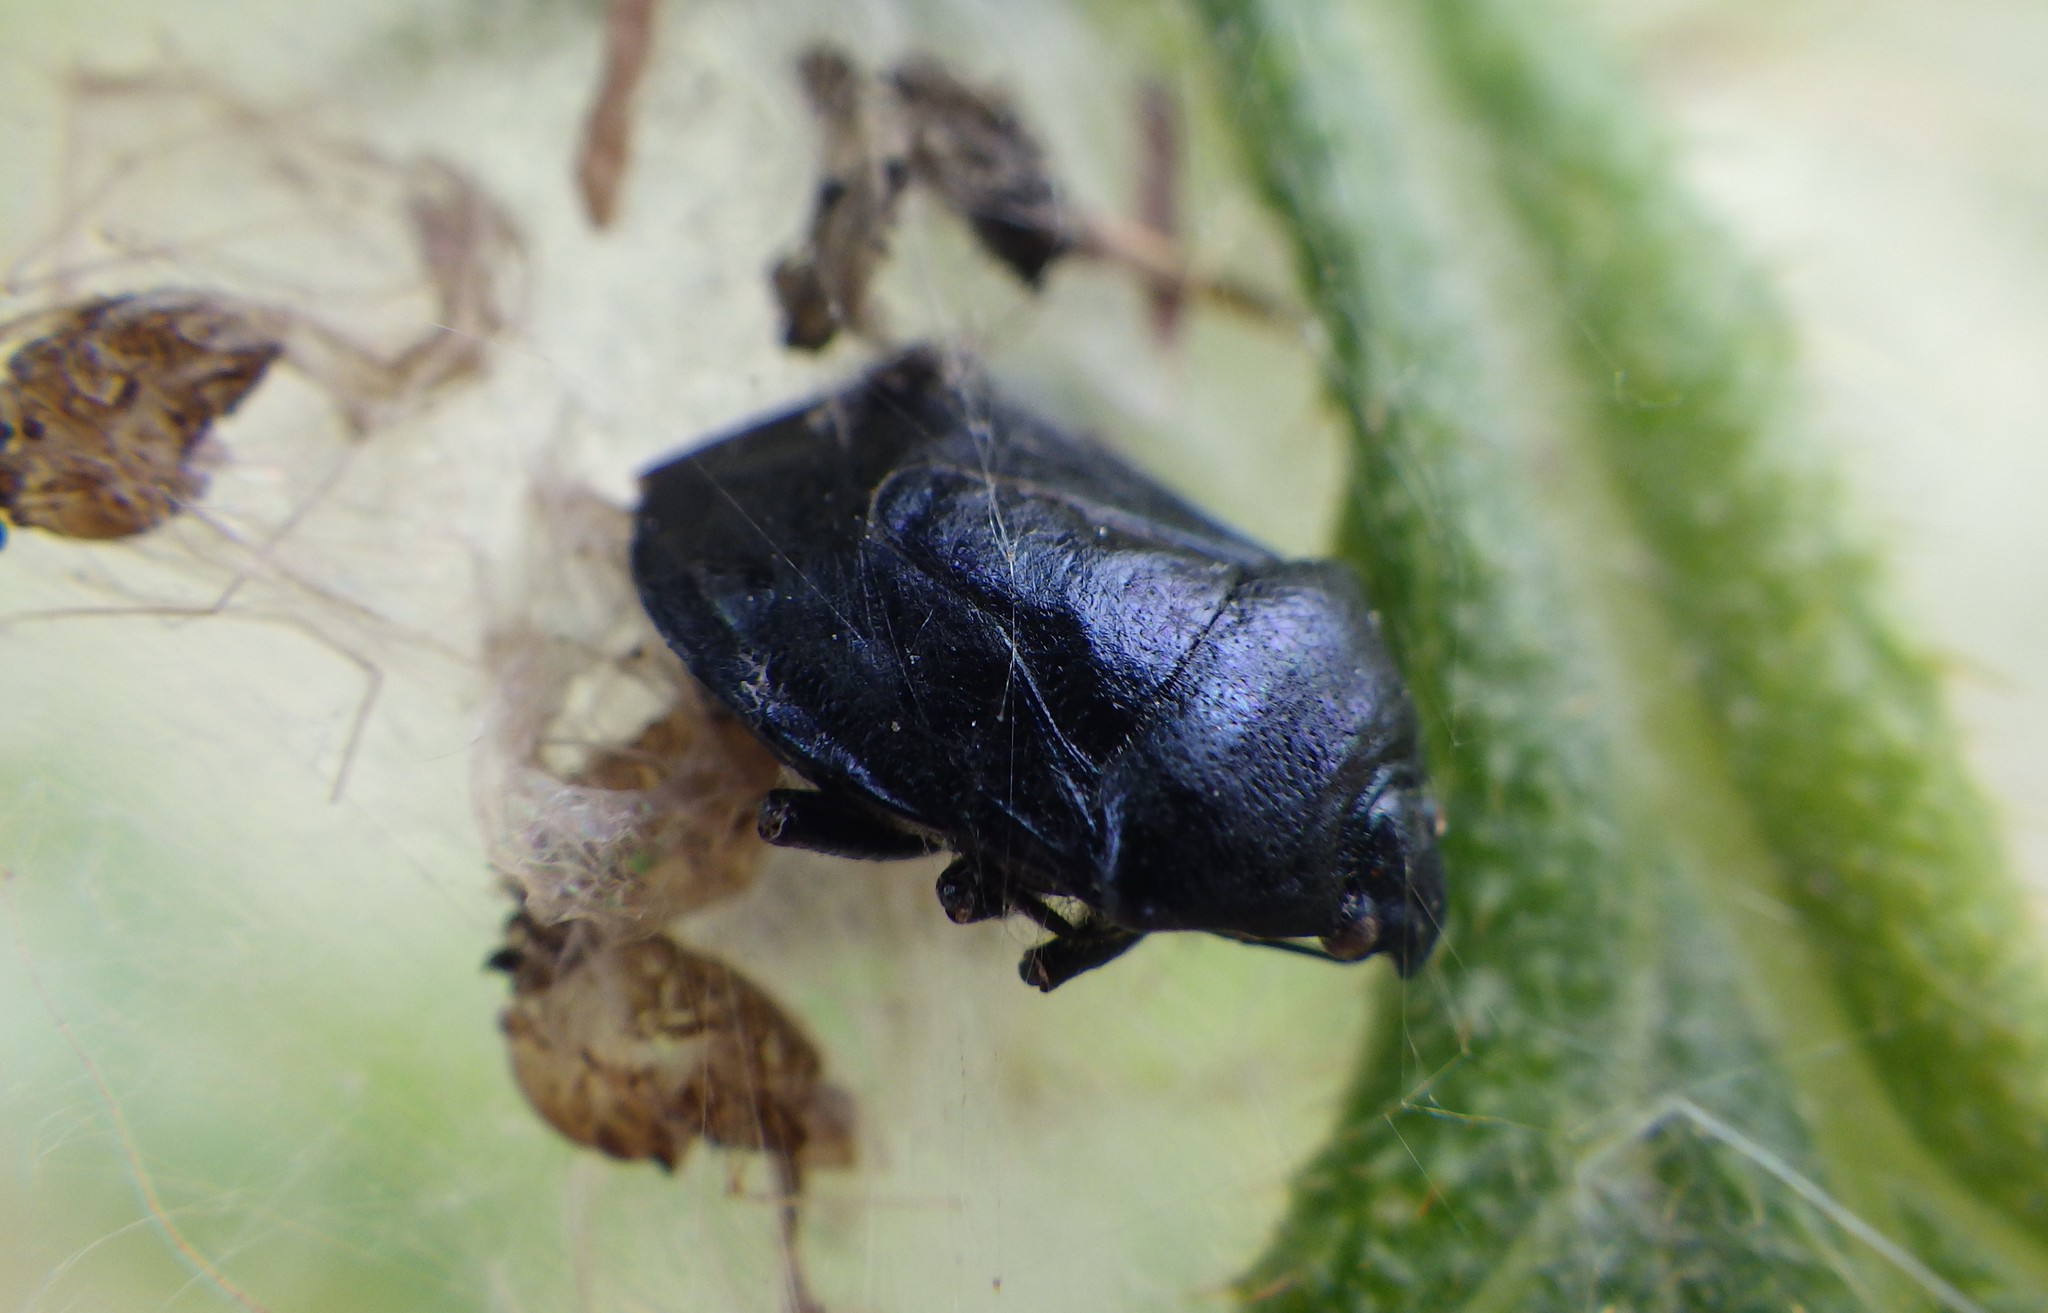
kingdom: Animalia
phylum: Arthropoda
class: Insecta
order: Hemiptera
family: Pentatomidae
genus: Zicrona
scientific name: Zicrona caerulea
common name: Blue shieldbug
